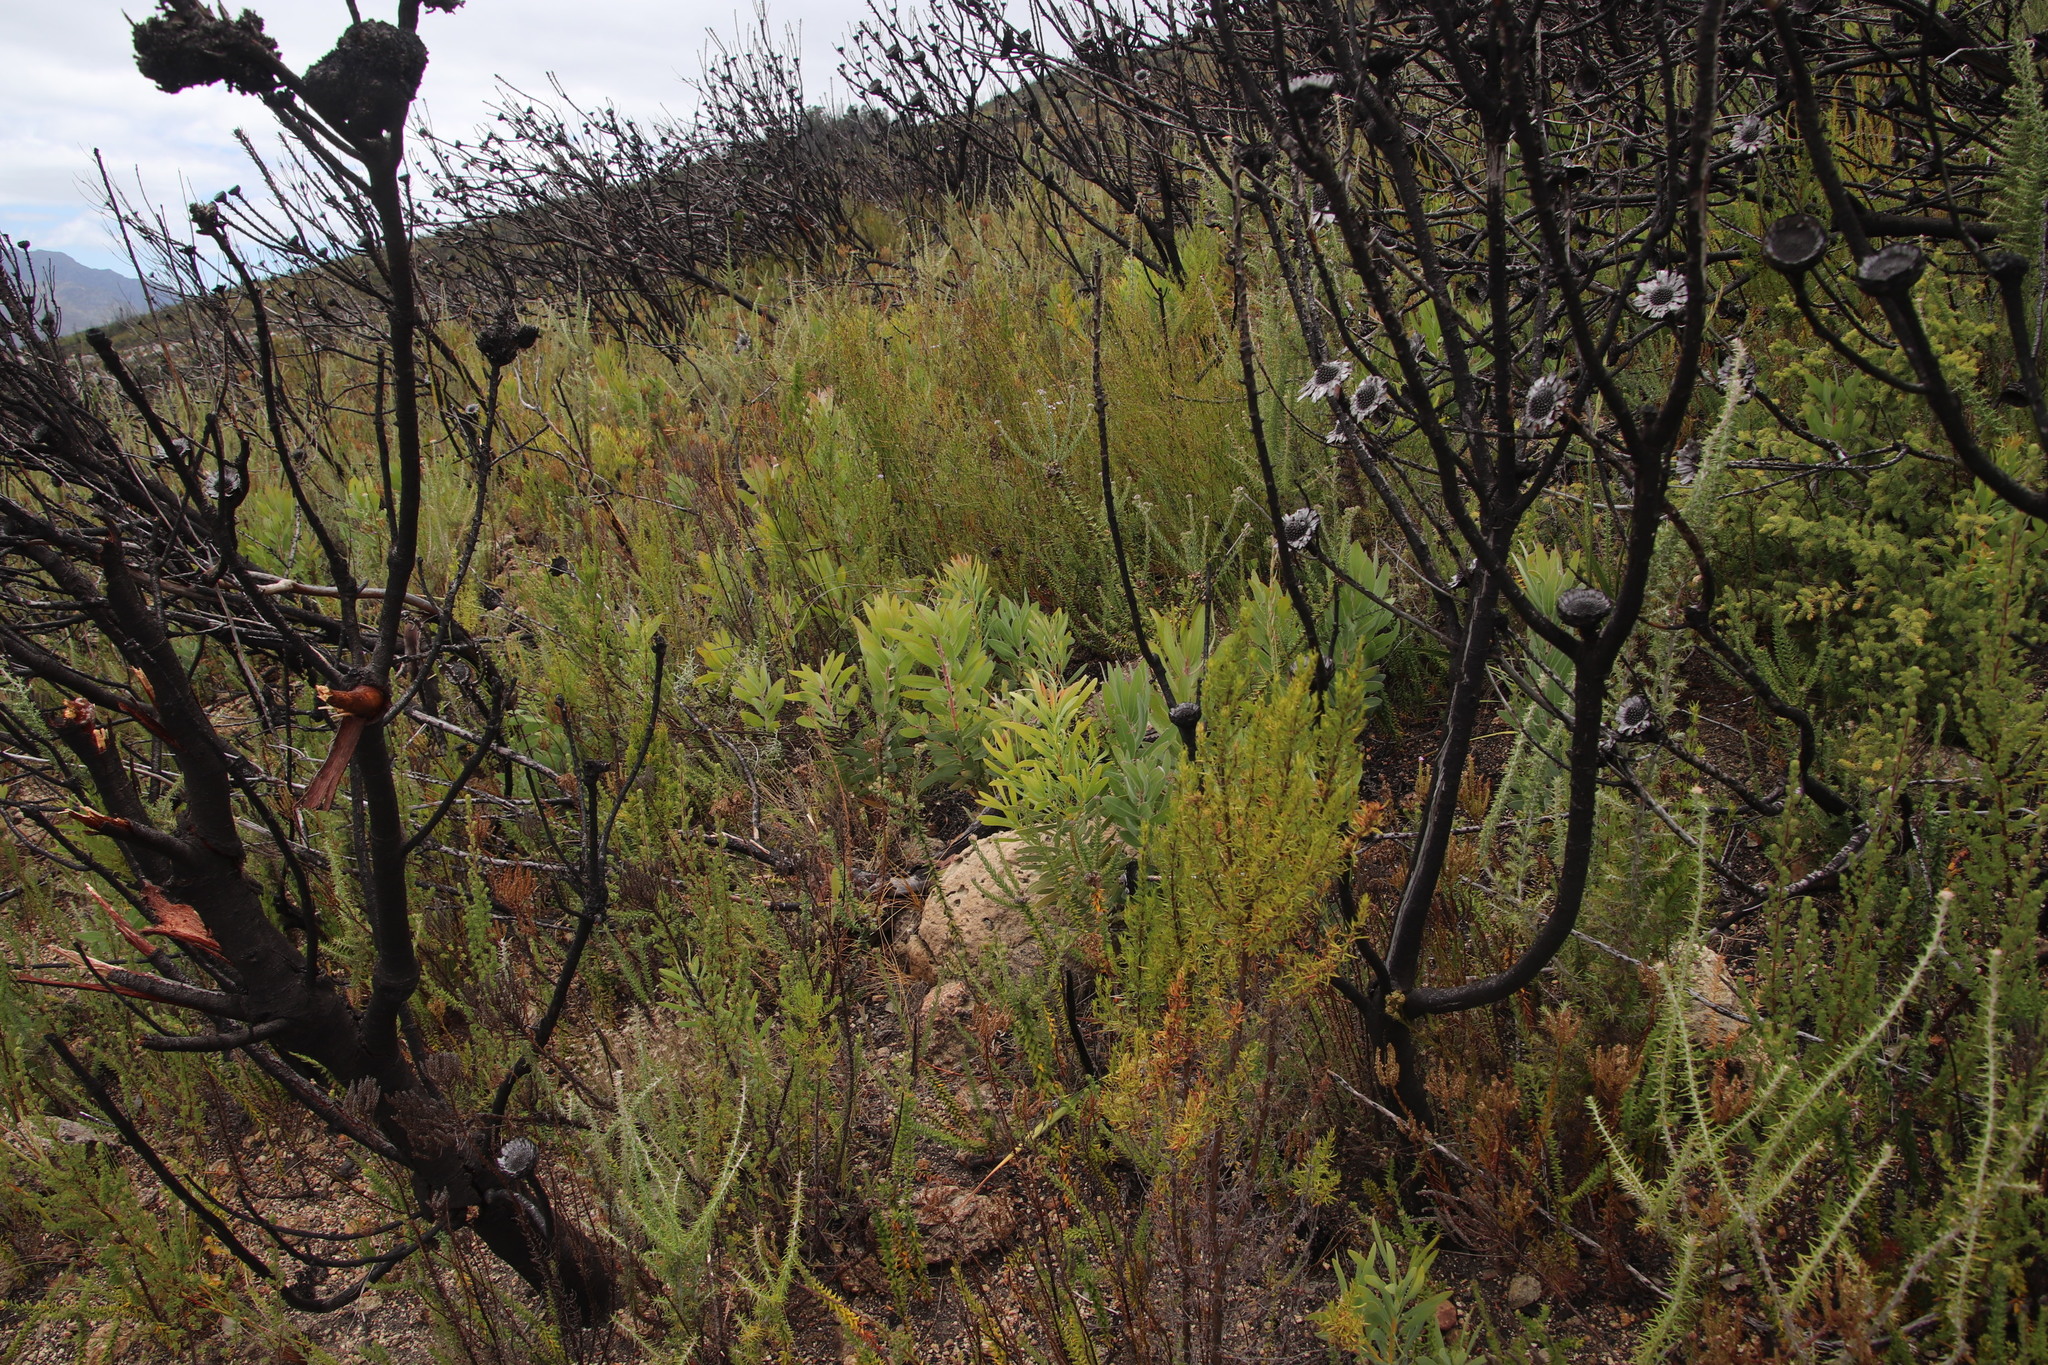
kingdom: Plantae
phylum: Tracheophyta
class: Magnoliopsida
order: Proteales
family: Proteaceae
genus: Protea
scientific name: Protea laurifolia
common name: Grey-leaf sugarbsh
